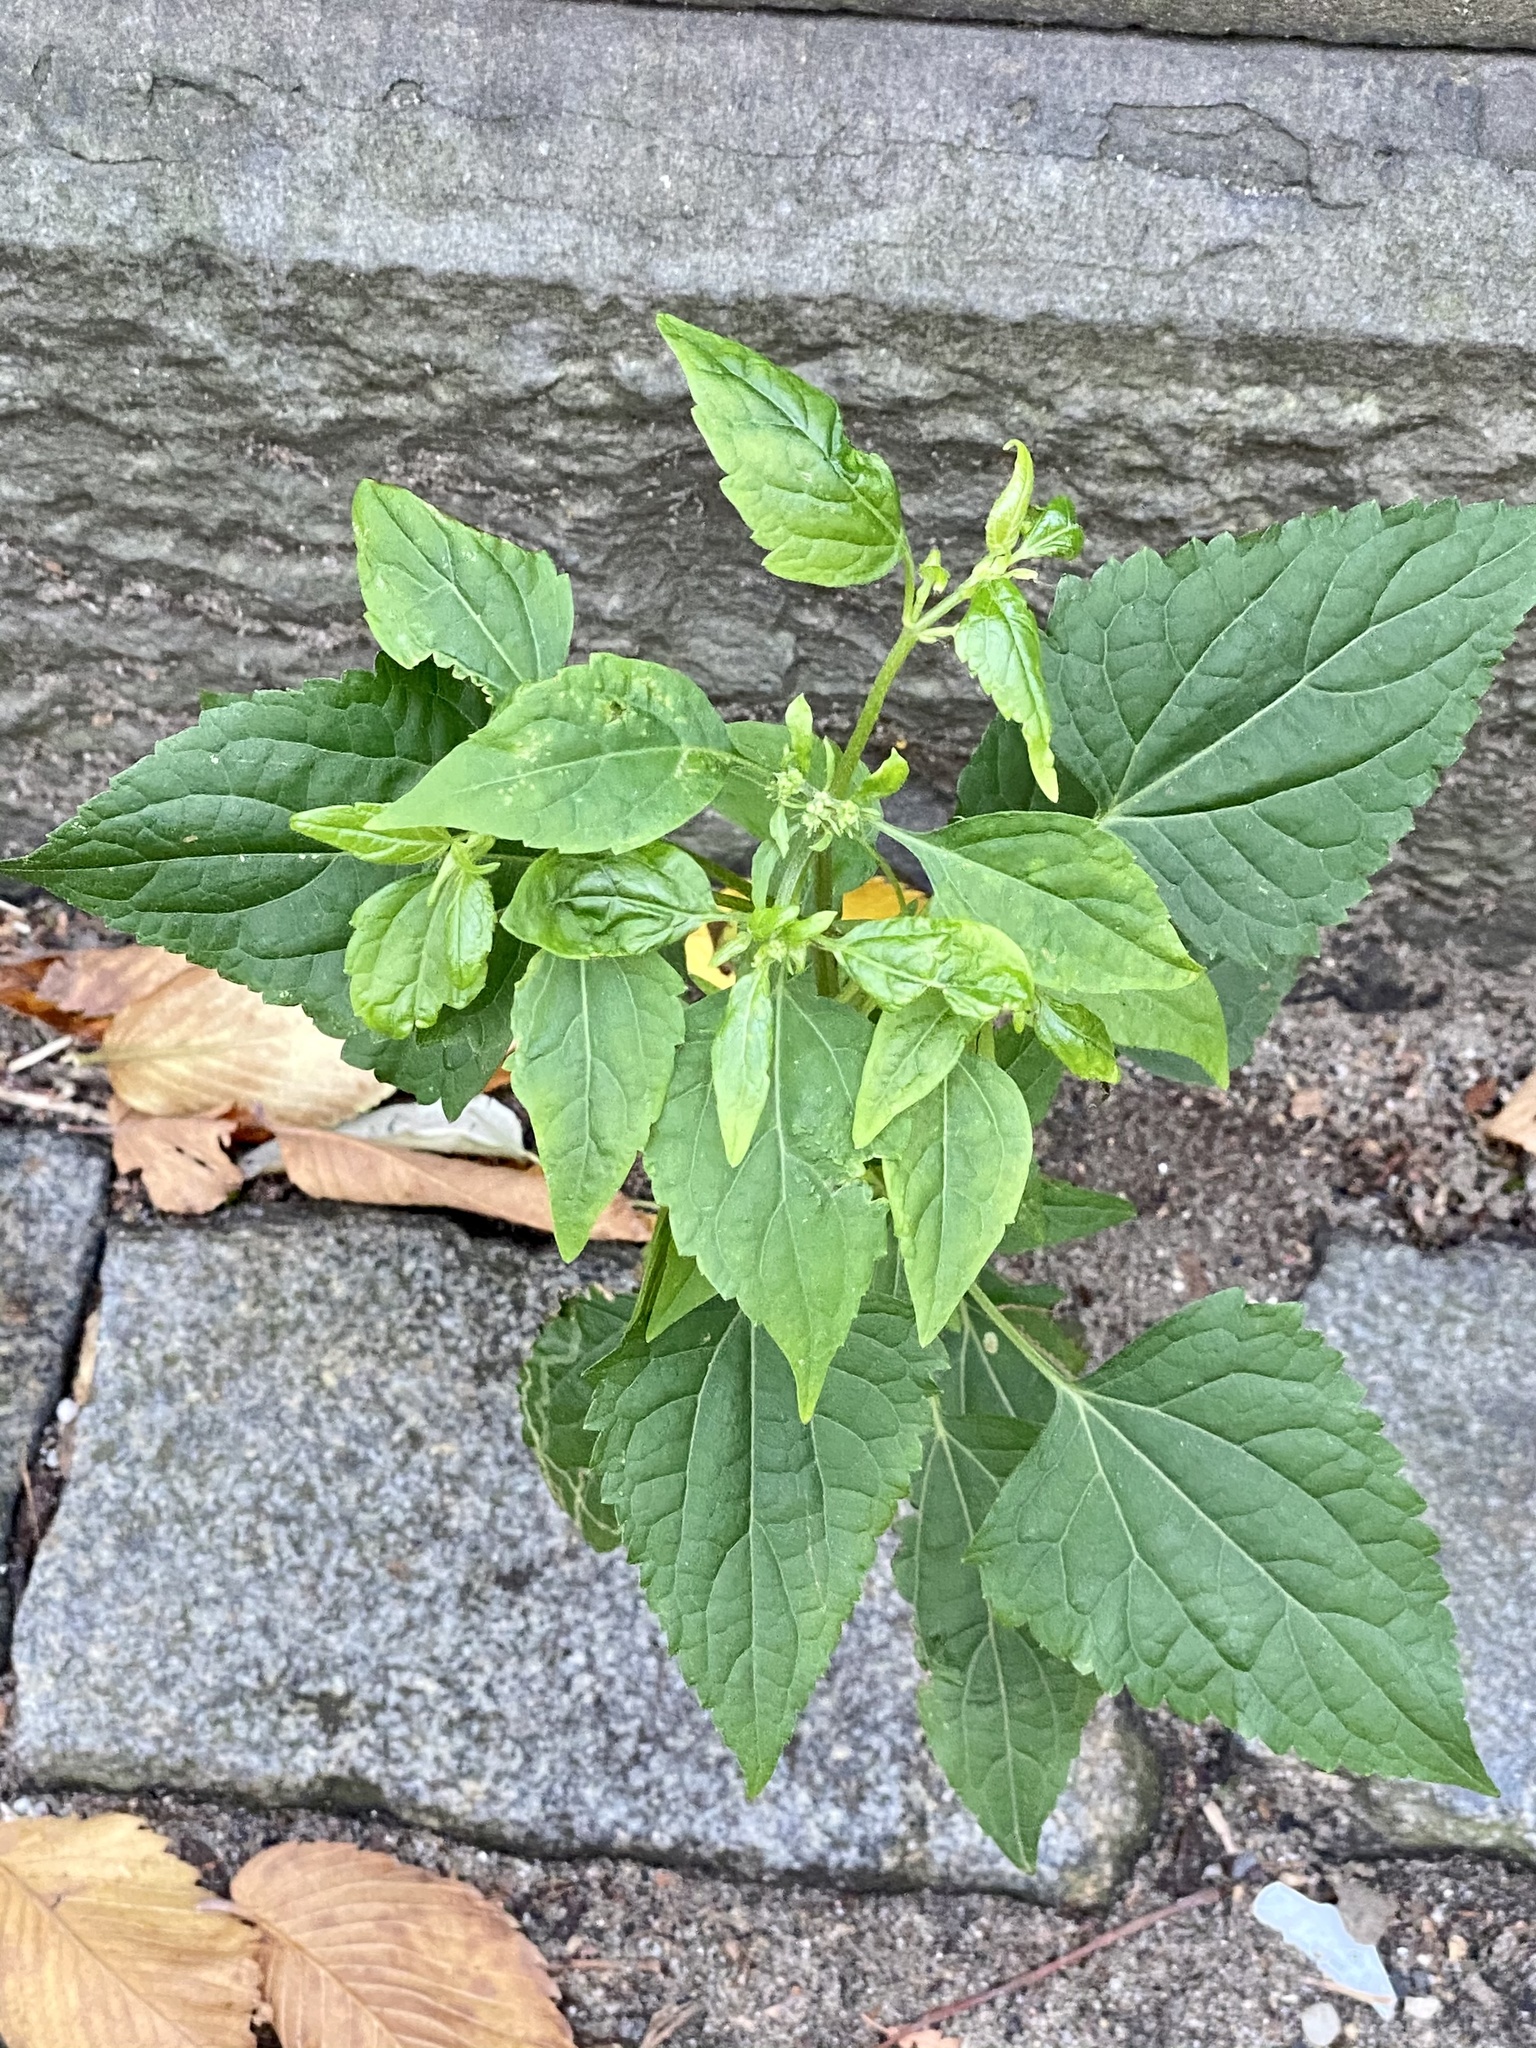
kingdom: Plantae
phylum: Tracheophyta
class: Magnoliopsida
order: Asterales
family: Asteraceae
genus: Ageratina
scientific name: Ageratina altissima
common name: White snakeroot
